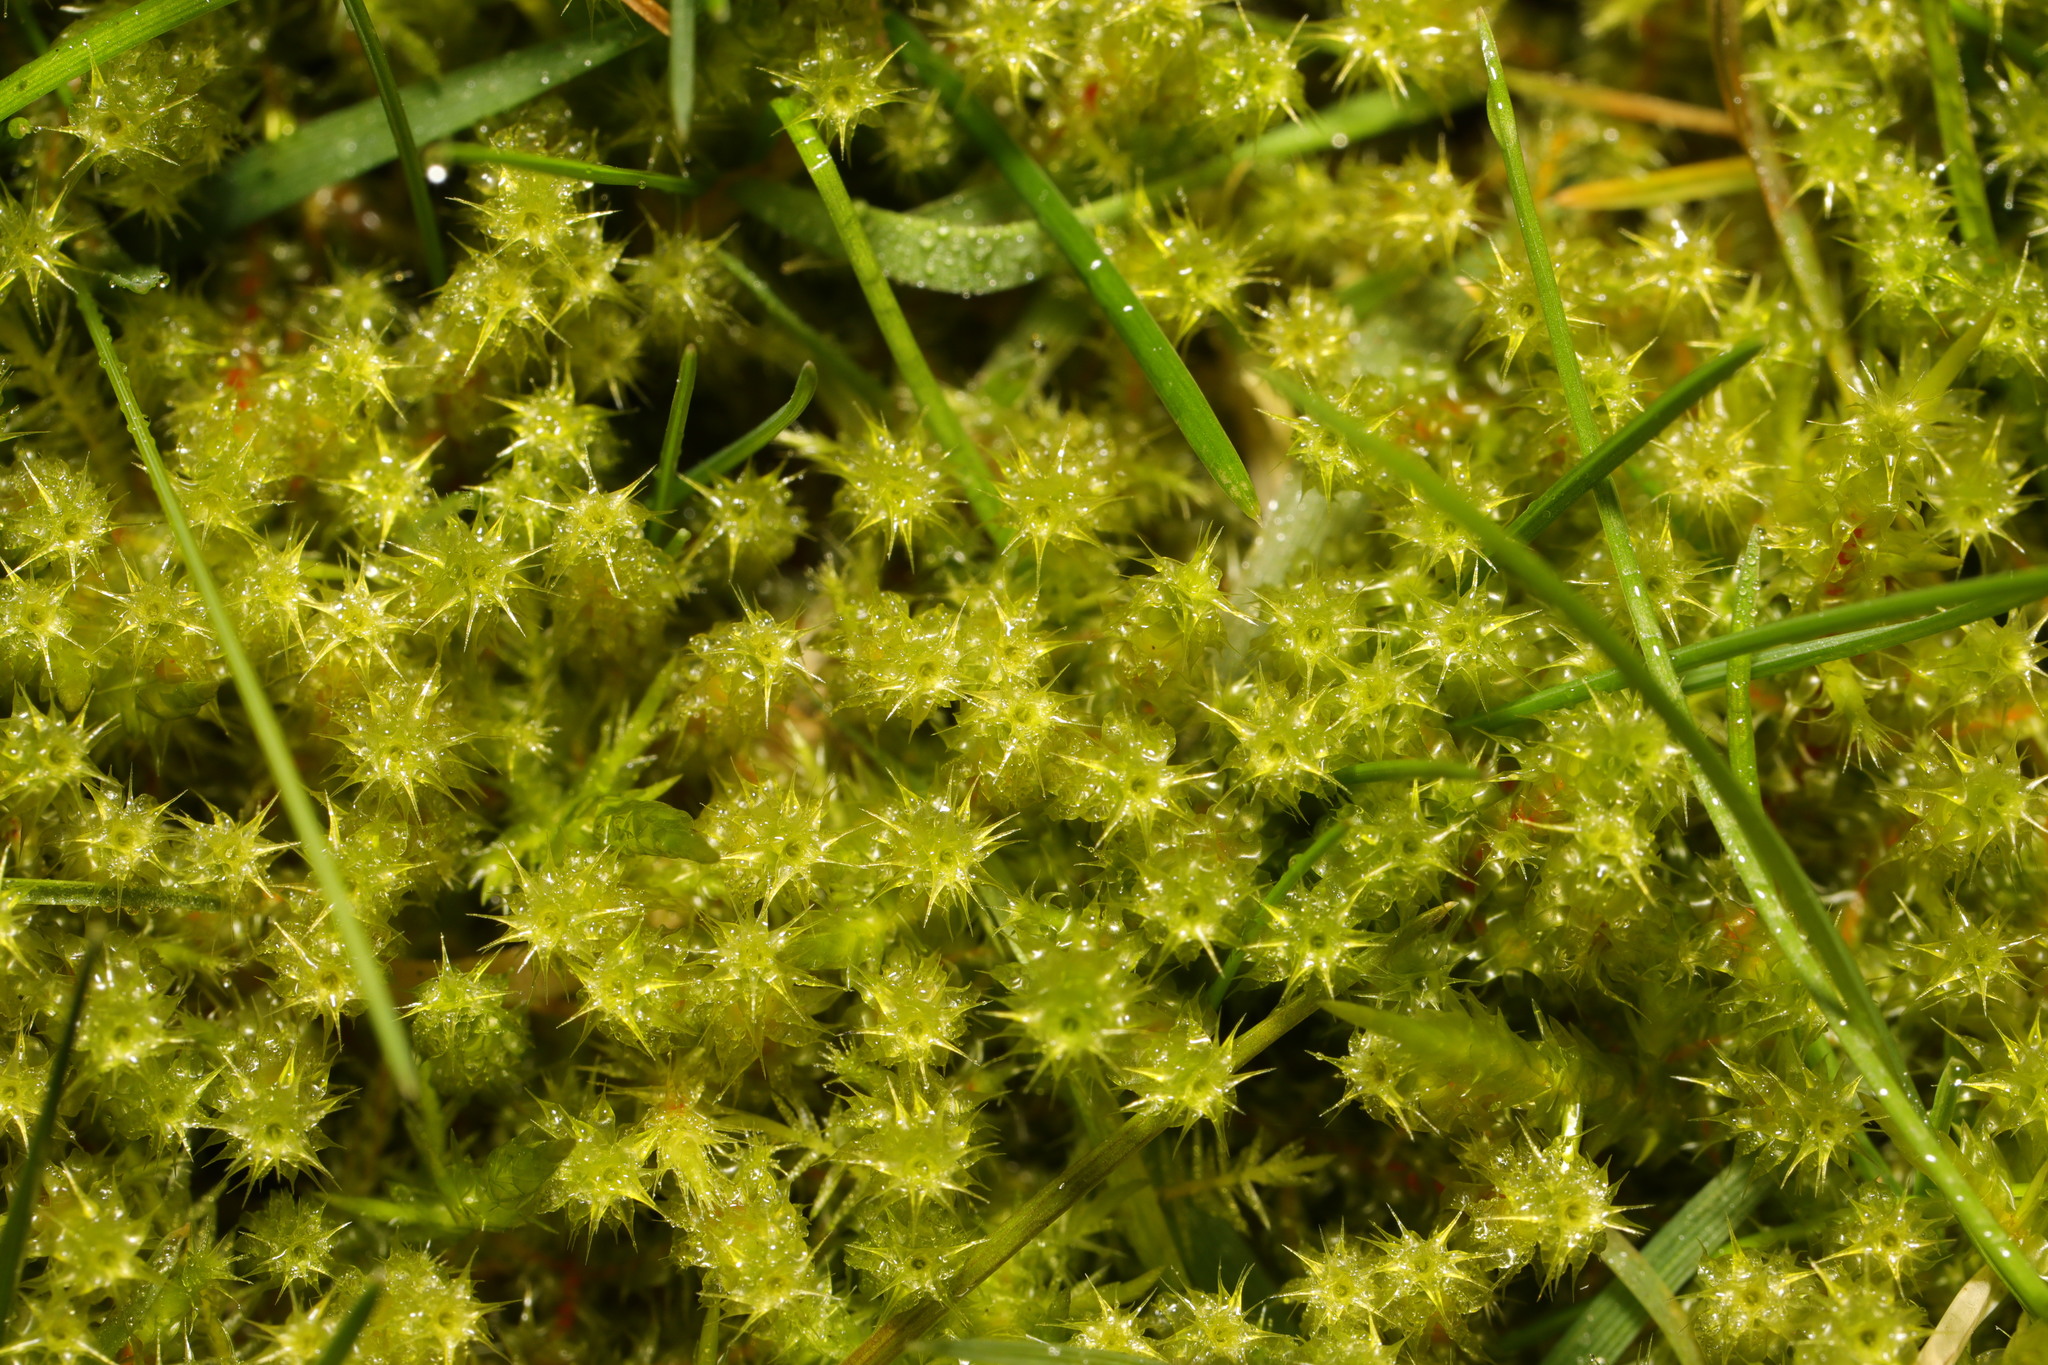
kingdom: Plantae
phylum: Bryophyta
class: Bryopsida
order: Hypnales
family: Hylocomiaceae
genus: Rhytidiadelphus
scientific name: Rhytidiadelphus squarrosus
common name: Springy turf-moss
